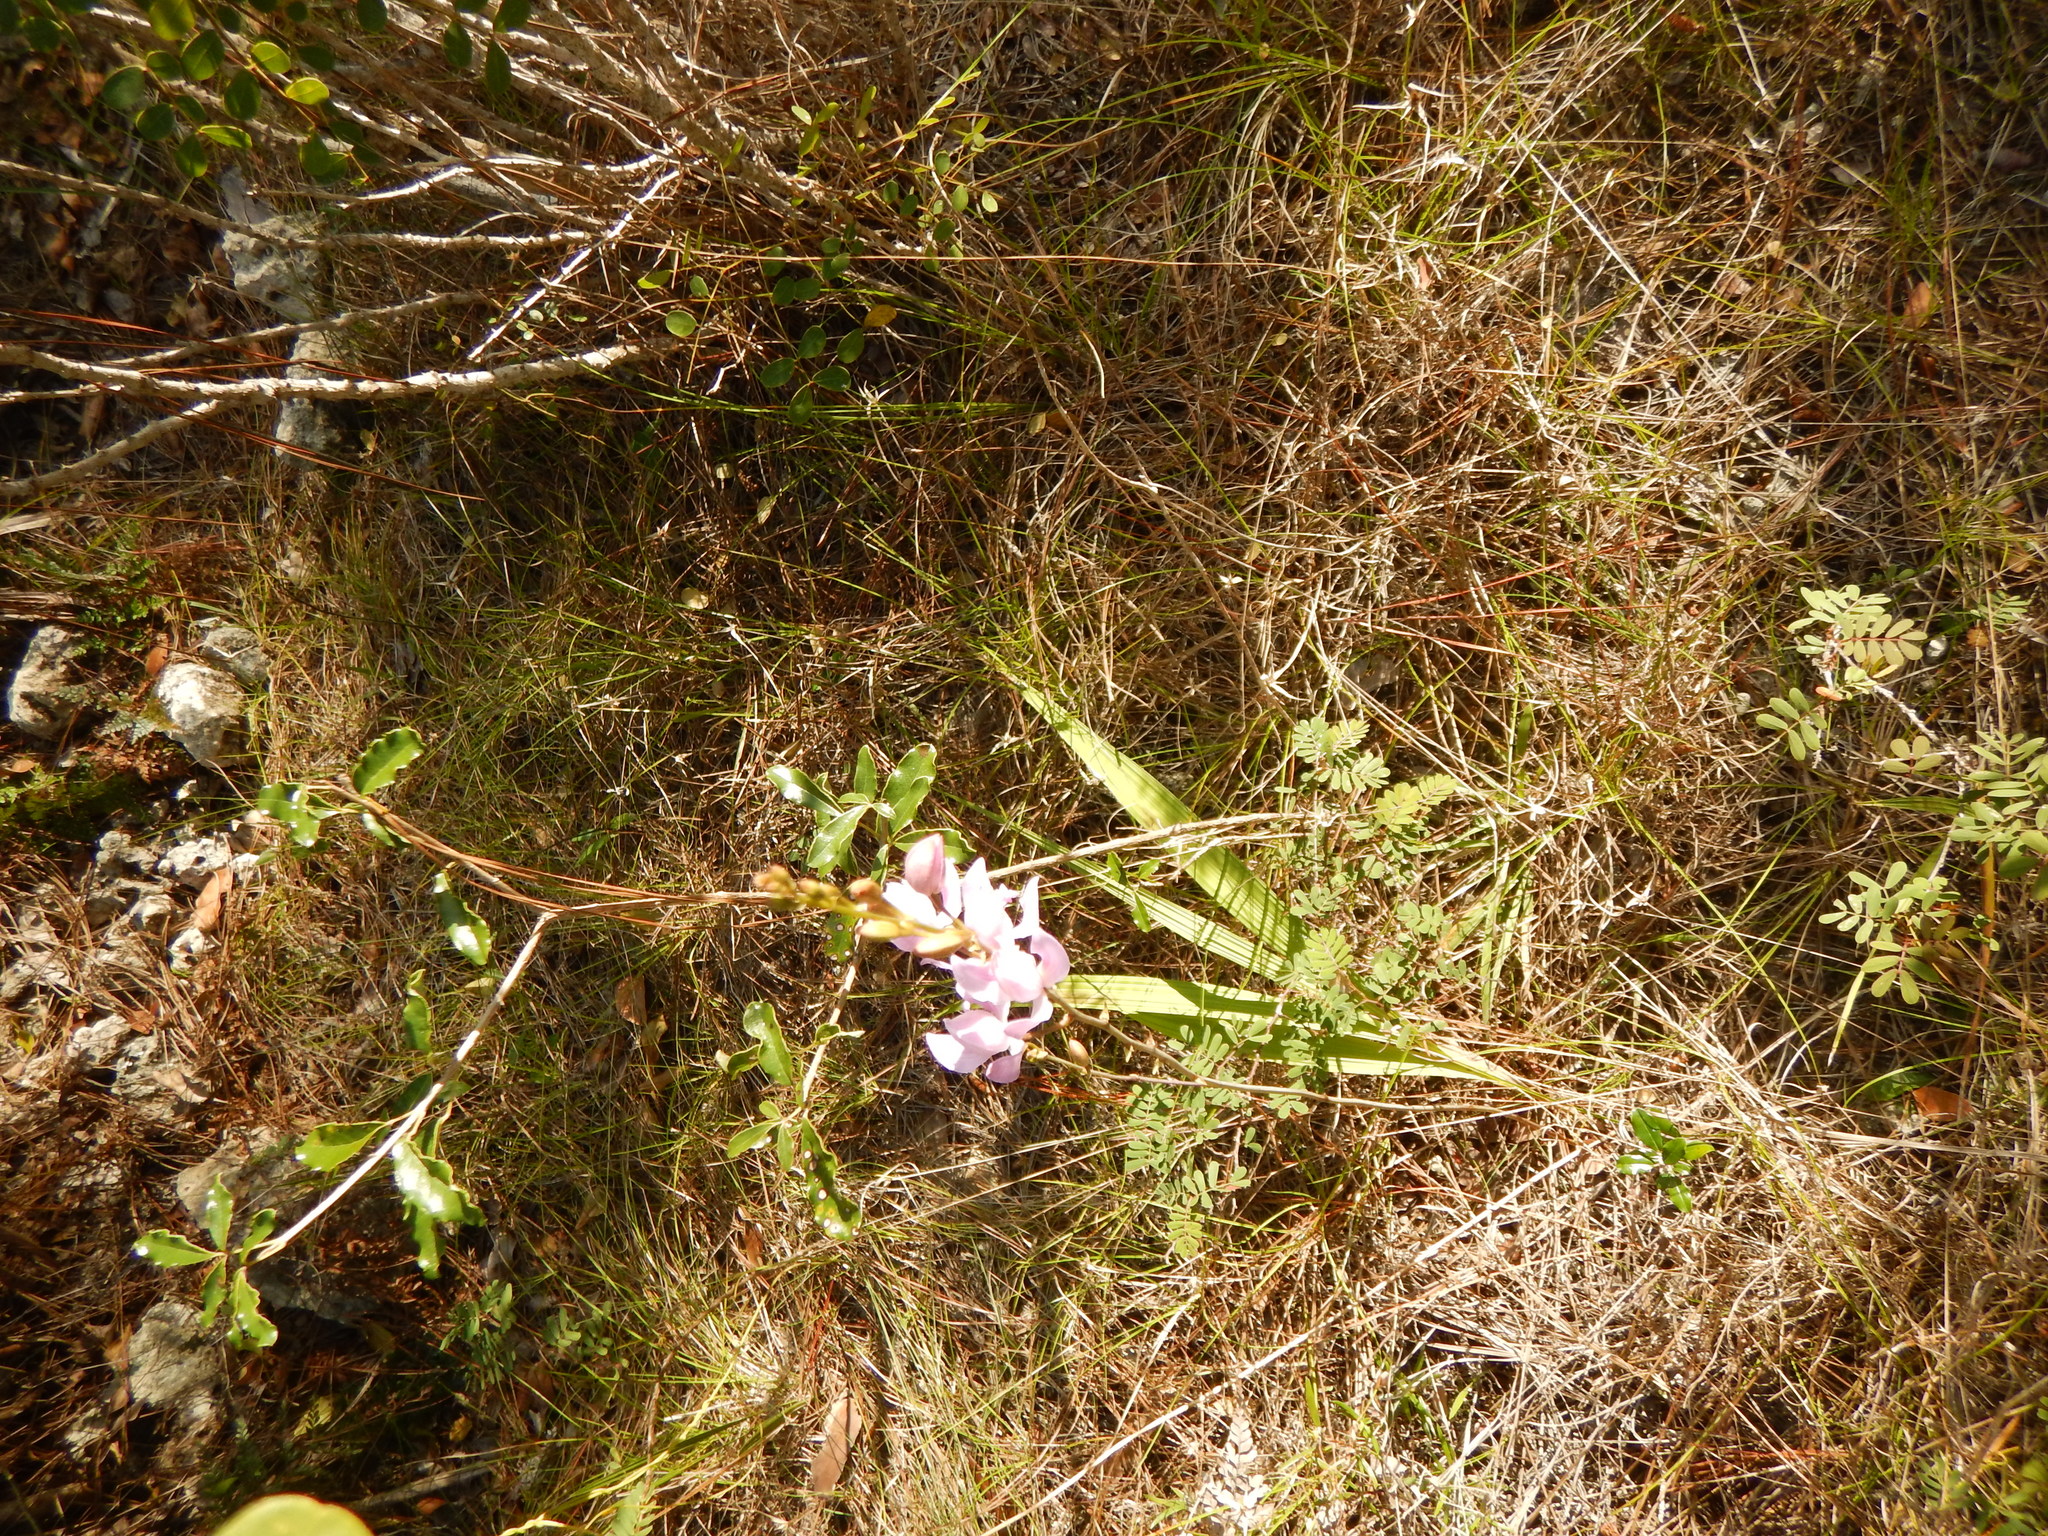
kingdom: Plantae
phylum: Tracheophyta
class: Liliopsida
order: Asparagales
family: Orchidaceae
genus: Bletia
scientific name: Bletia purpurea
